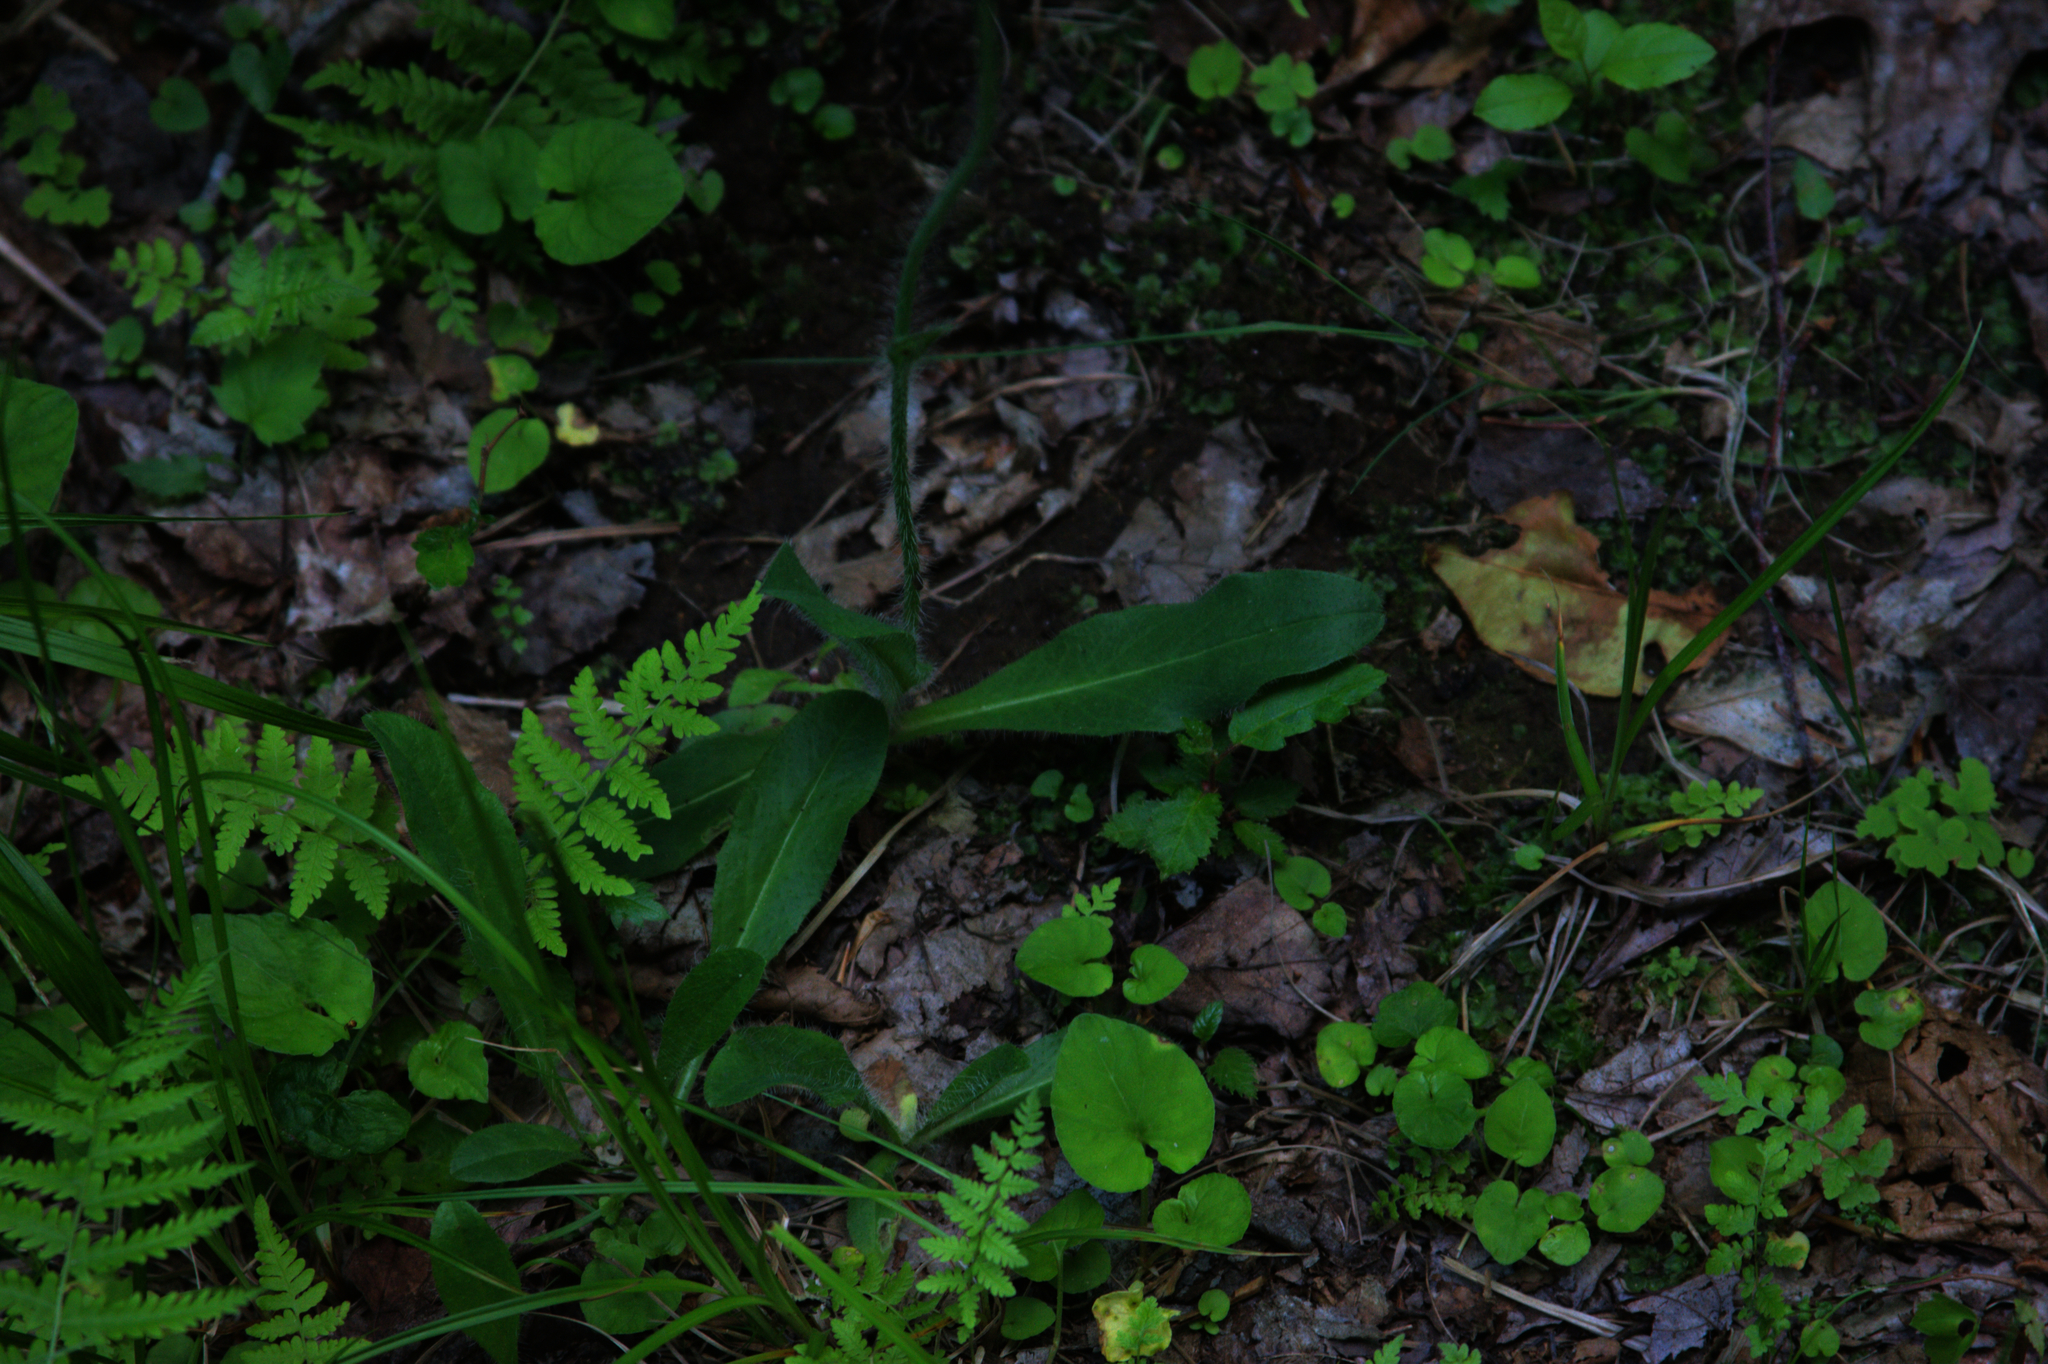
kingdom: Plantae
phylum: Tracheophyta
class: Magnoliopsida
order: Asterales
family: Asteraceae
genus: Pilosella
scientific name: Pilosella aurantiaca
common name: Fox-and-cubs
